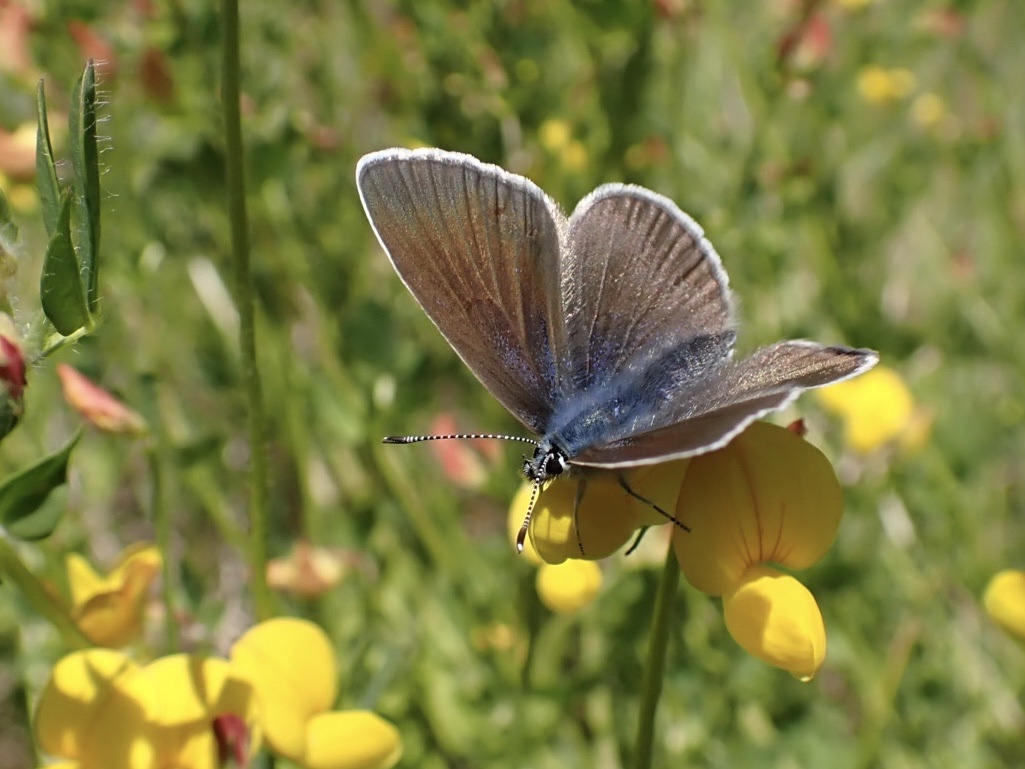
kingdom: Animalia
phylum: Arthropoda
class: Insecta
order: Lepidoptera
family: Lycaenidae
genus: Cyaniris
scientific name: Cyaniris semiargus
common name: Mazarine blue
